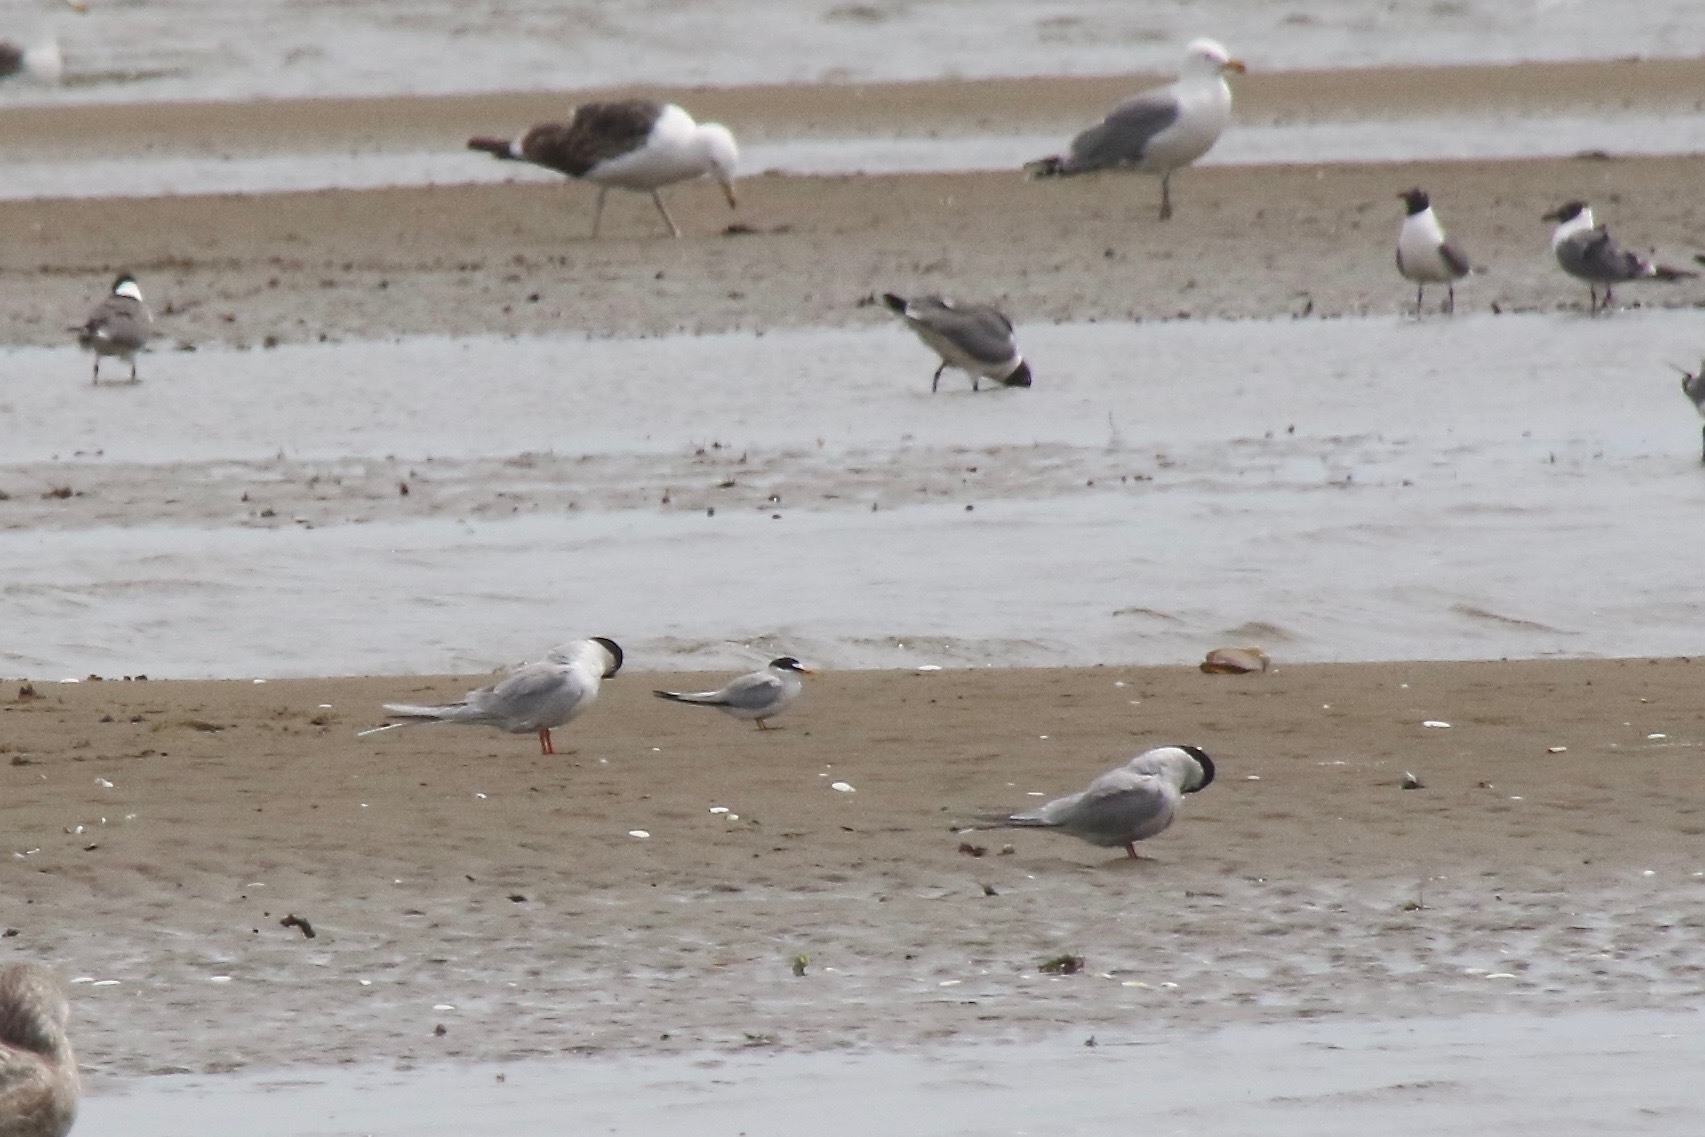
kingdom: Animalia
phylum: Chordata
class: Aves
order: Charadriiformes
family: Laridae
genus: Sternula
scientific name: Sternula antillarum
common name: Least tern
